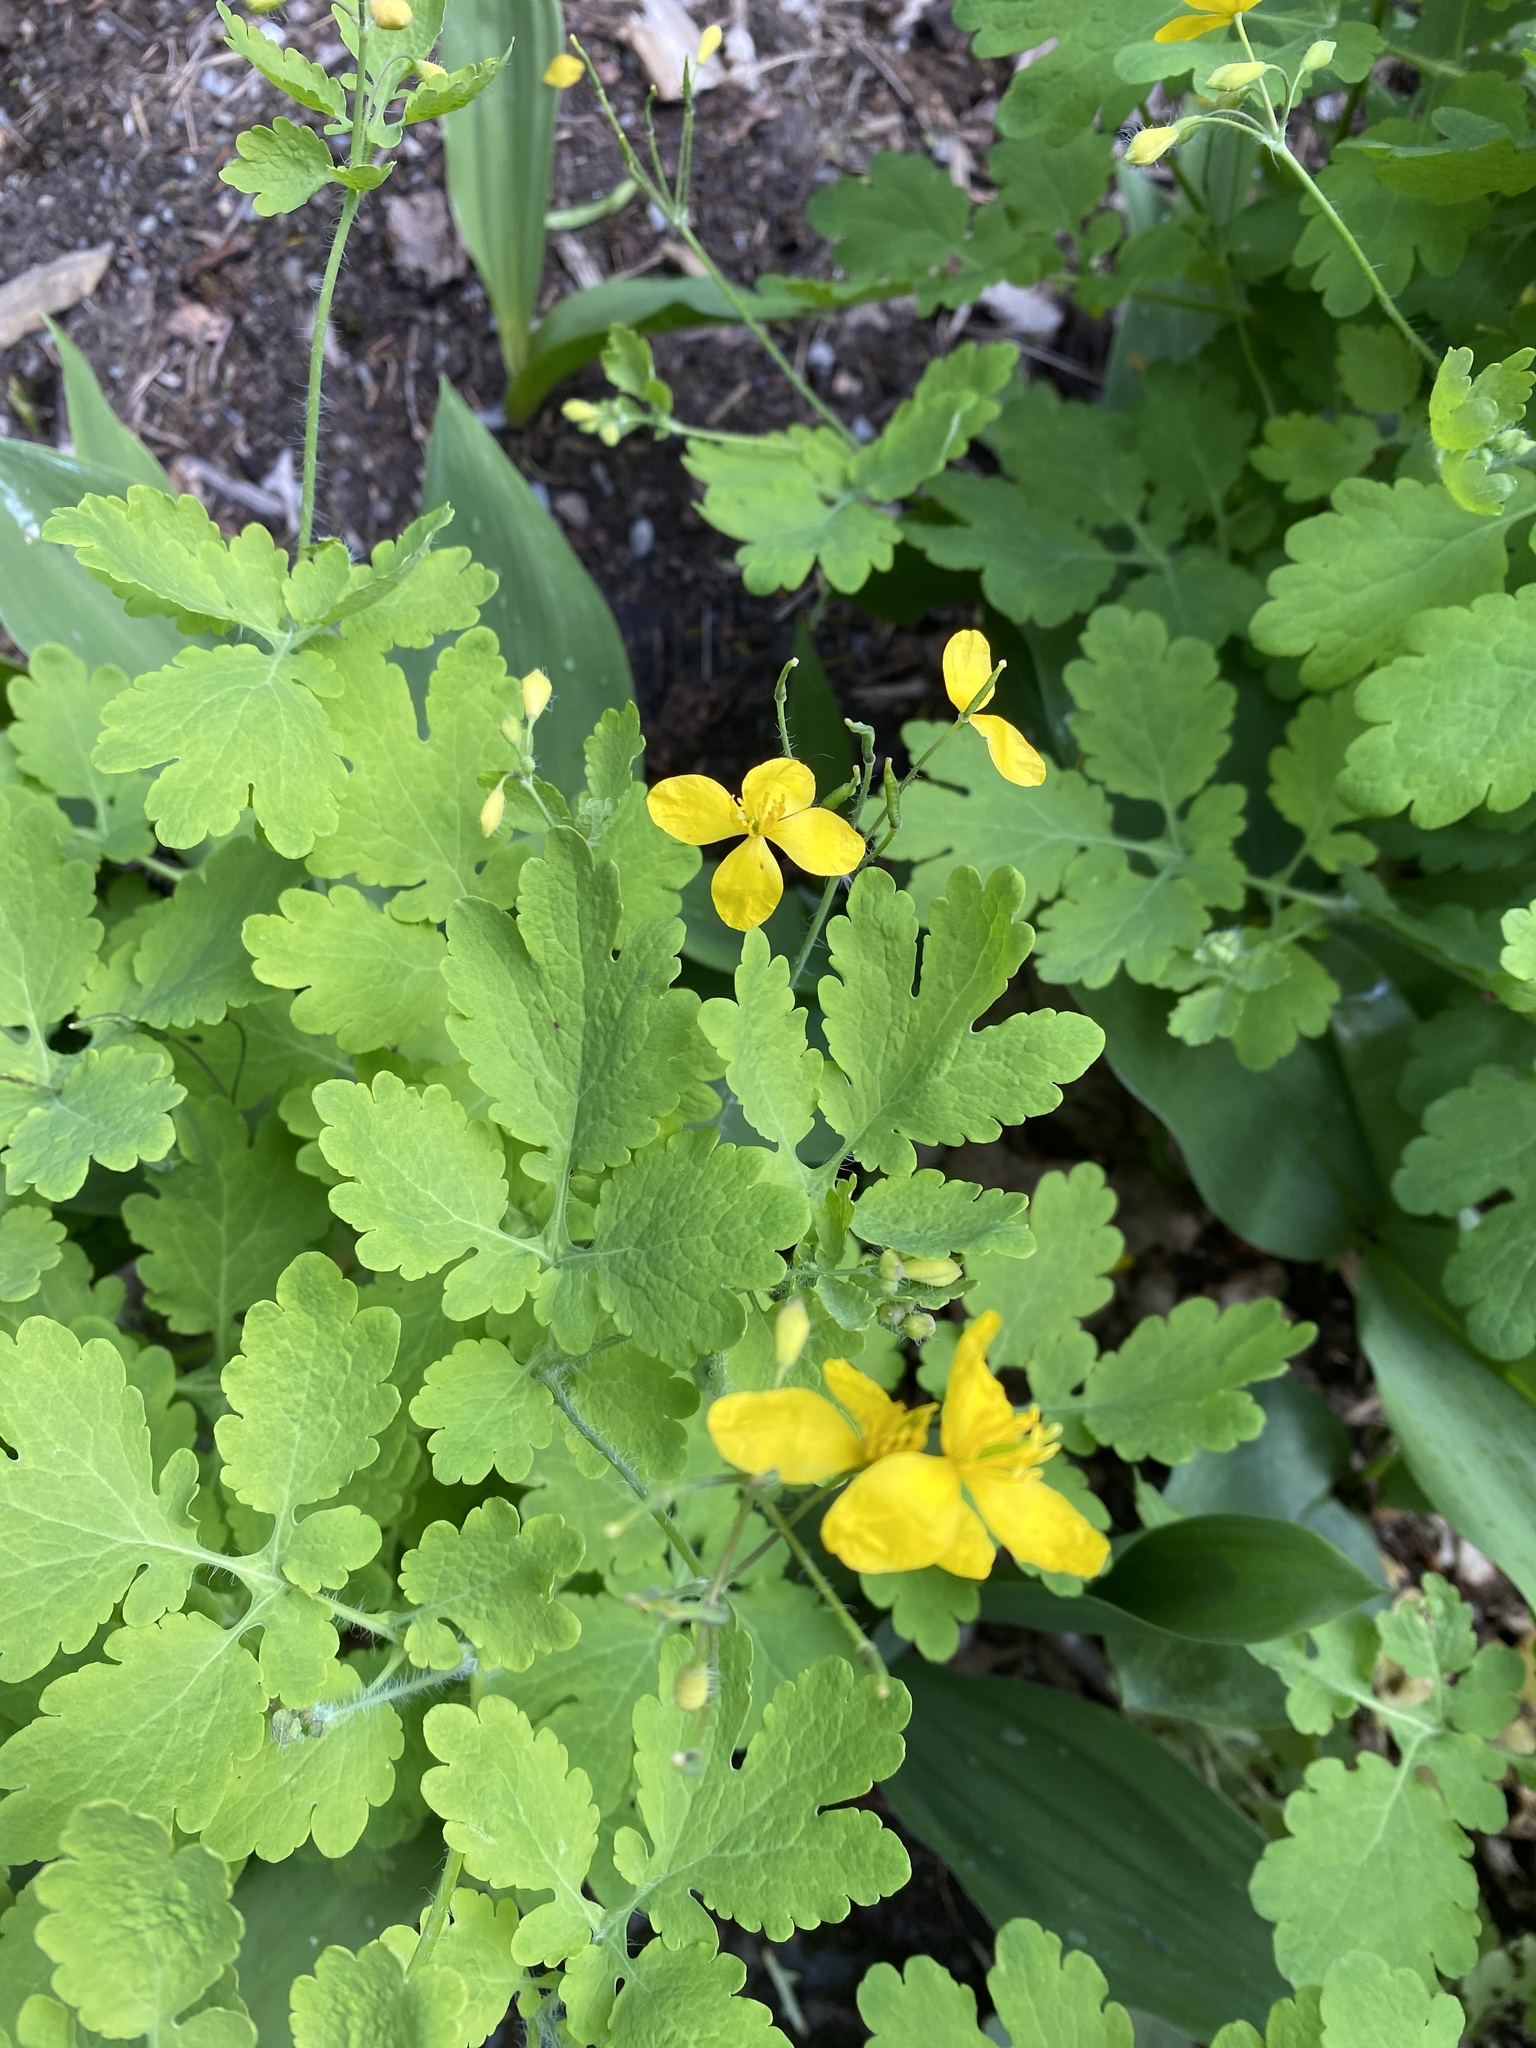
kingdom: Plantae
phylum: Tracheophyta
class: Magnoliopsida
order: Ranunculales
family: Papaveraceae
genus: Chelidonium
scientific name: Chelidonium majus
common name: Greater celandine
